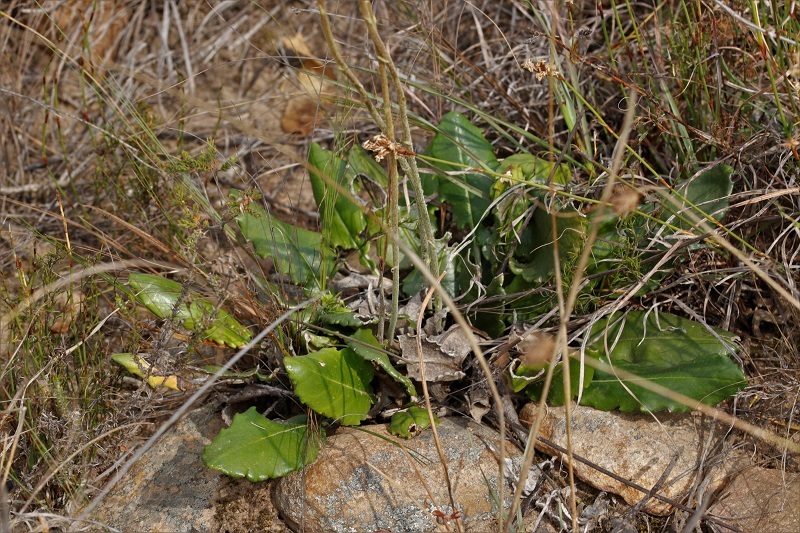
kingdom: Plantae
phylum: Tracheophyta
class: Magnoliopsida
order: Asterales
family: Asteraceae
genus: Gerbera
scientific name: Gerbera tomentosa
